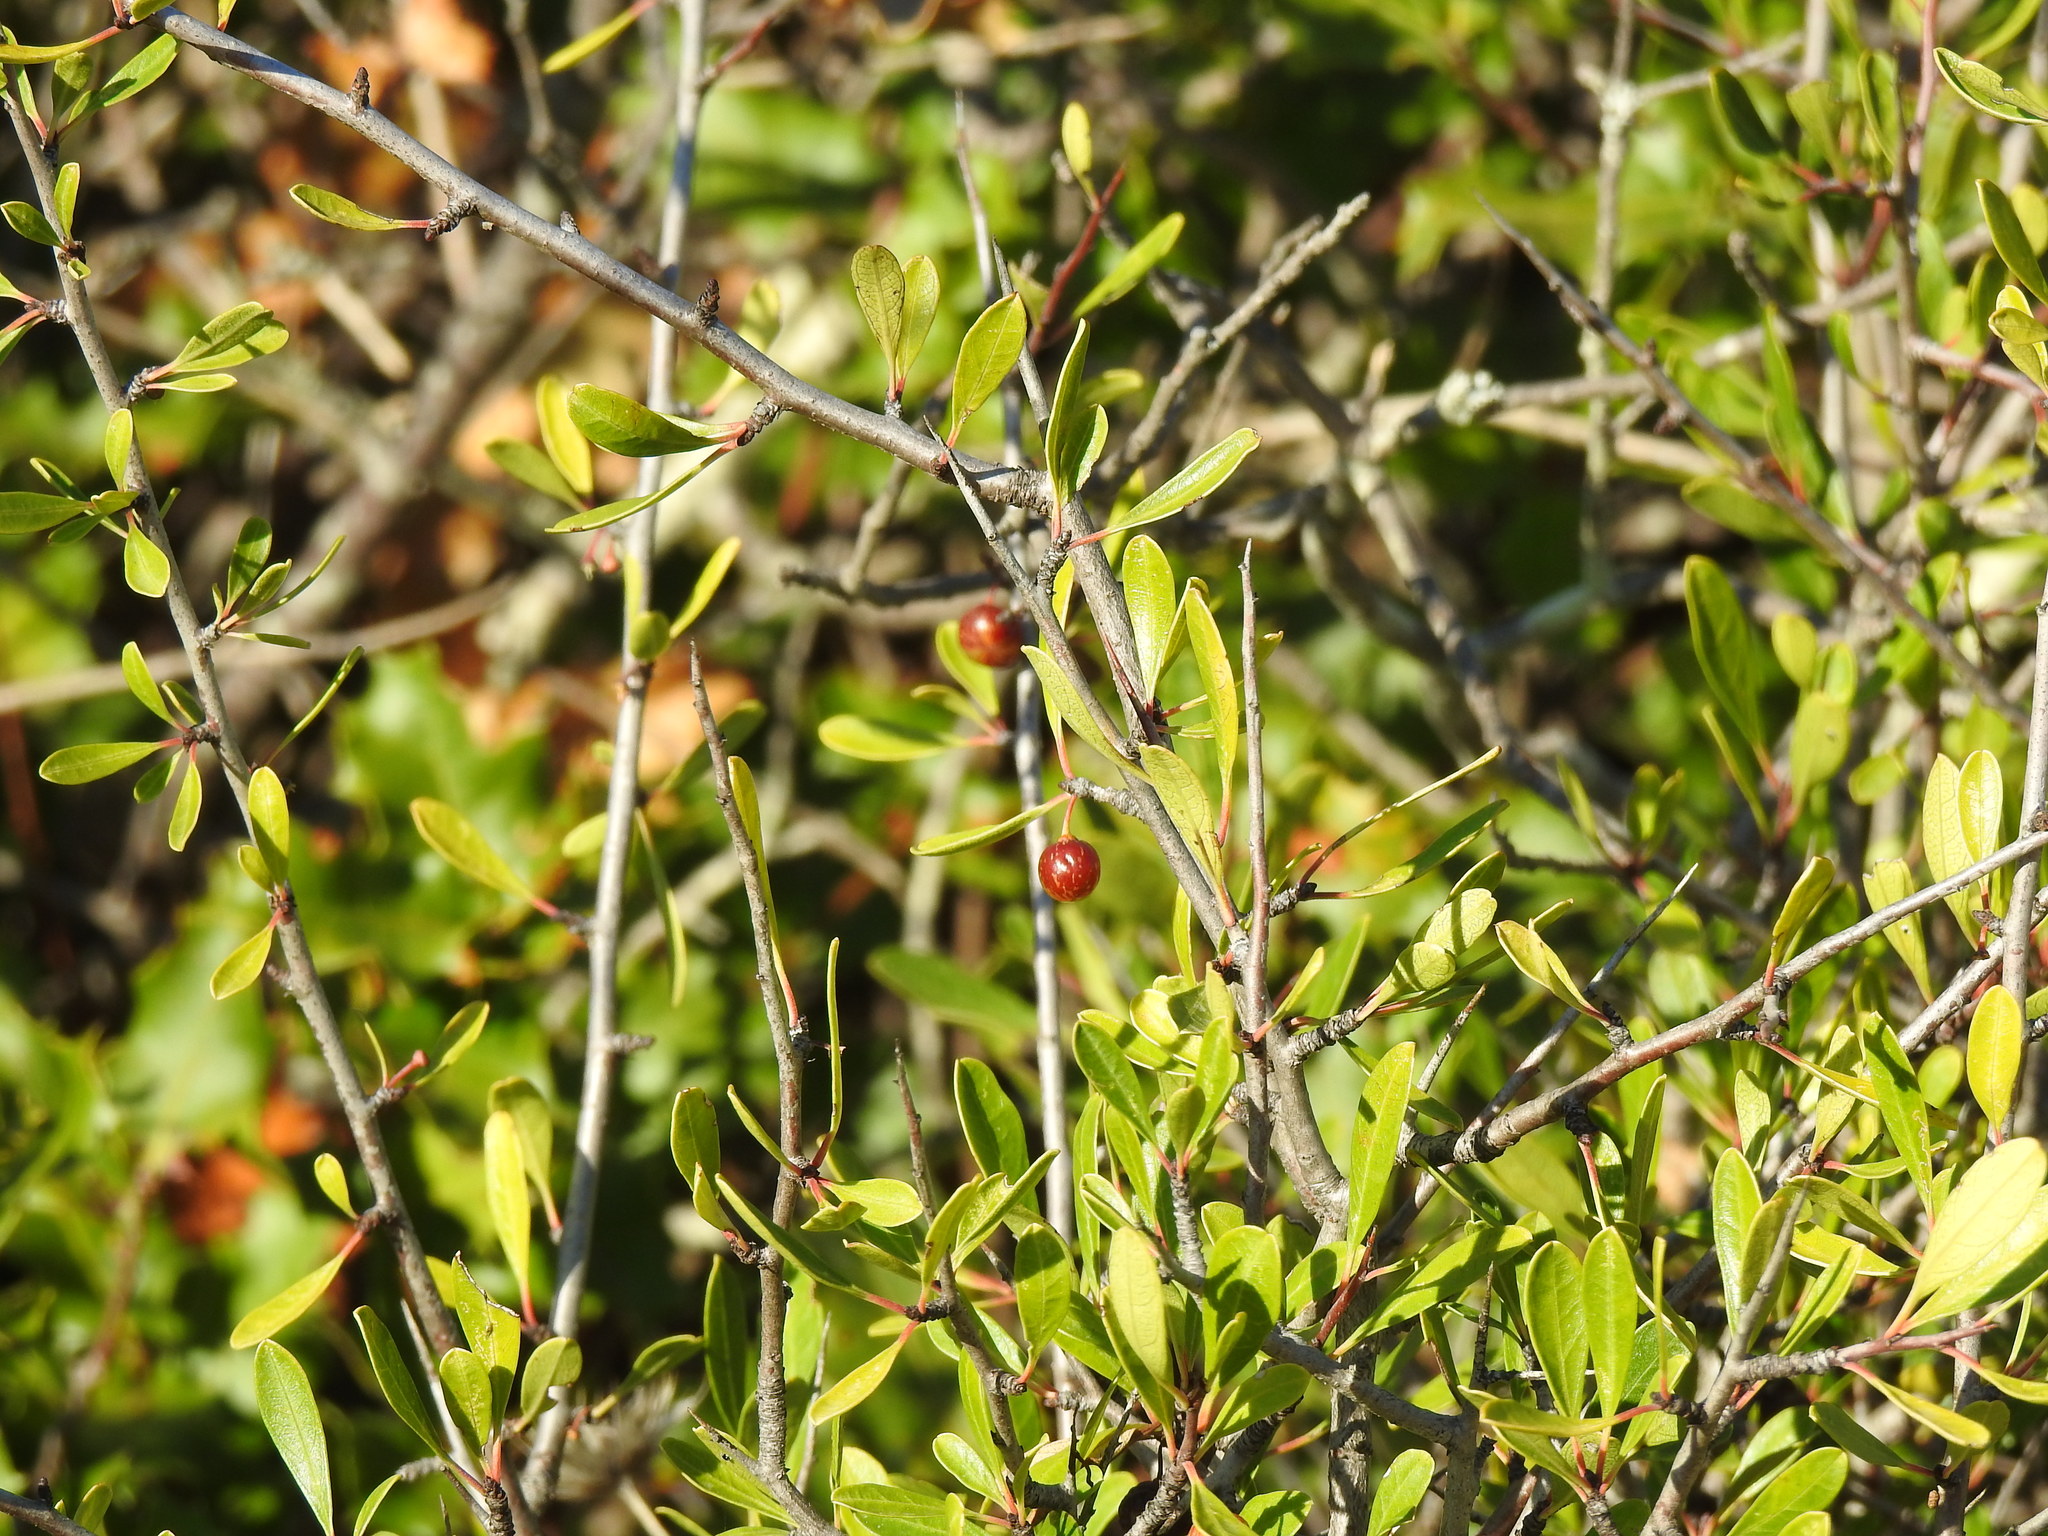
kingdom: Plantae
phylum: Tracheophyta
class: Magnoliopsida
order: Rosales
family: Rhamnaceae
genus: Rhamnus
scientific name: Rhamnus oleoides
